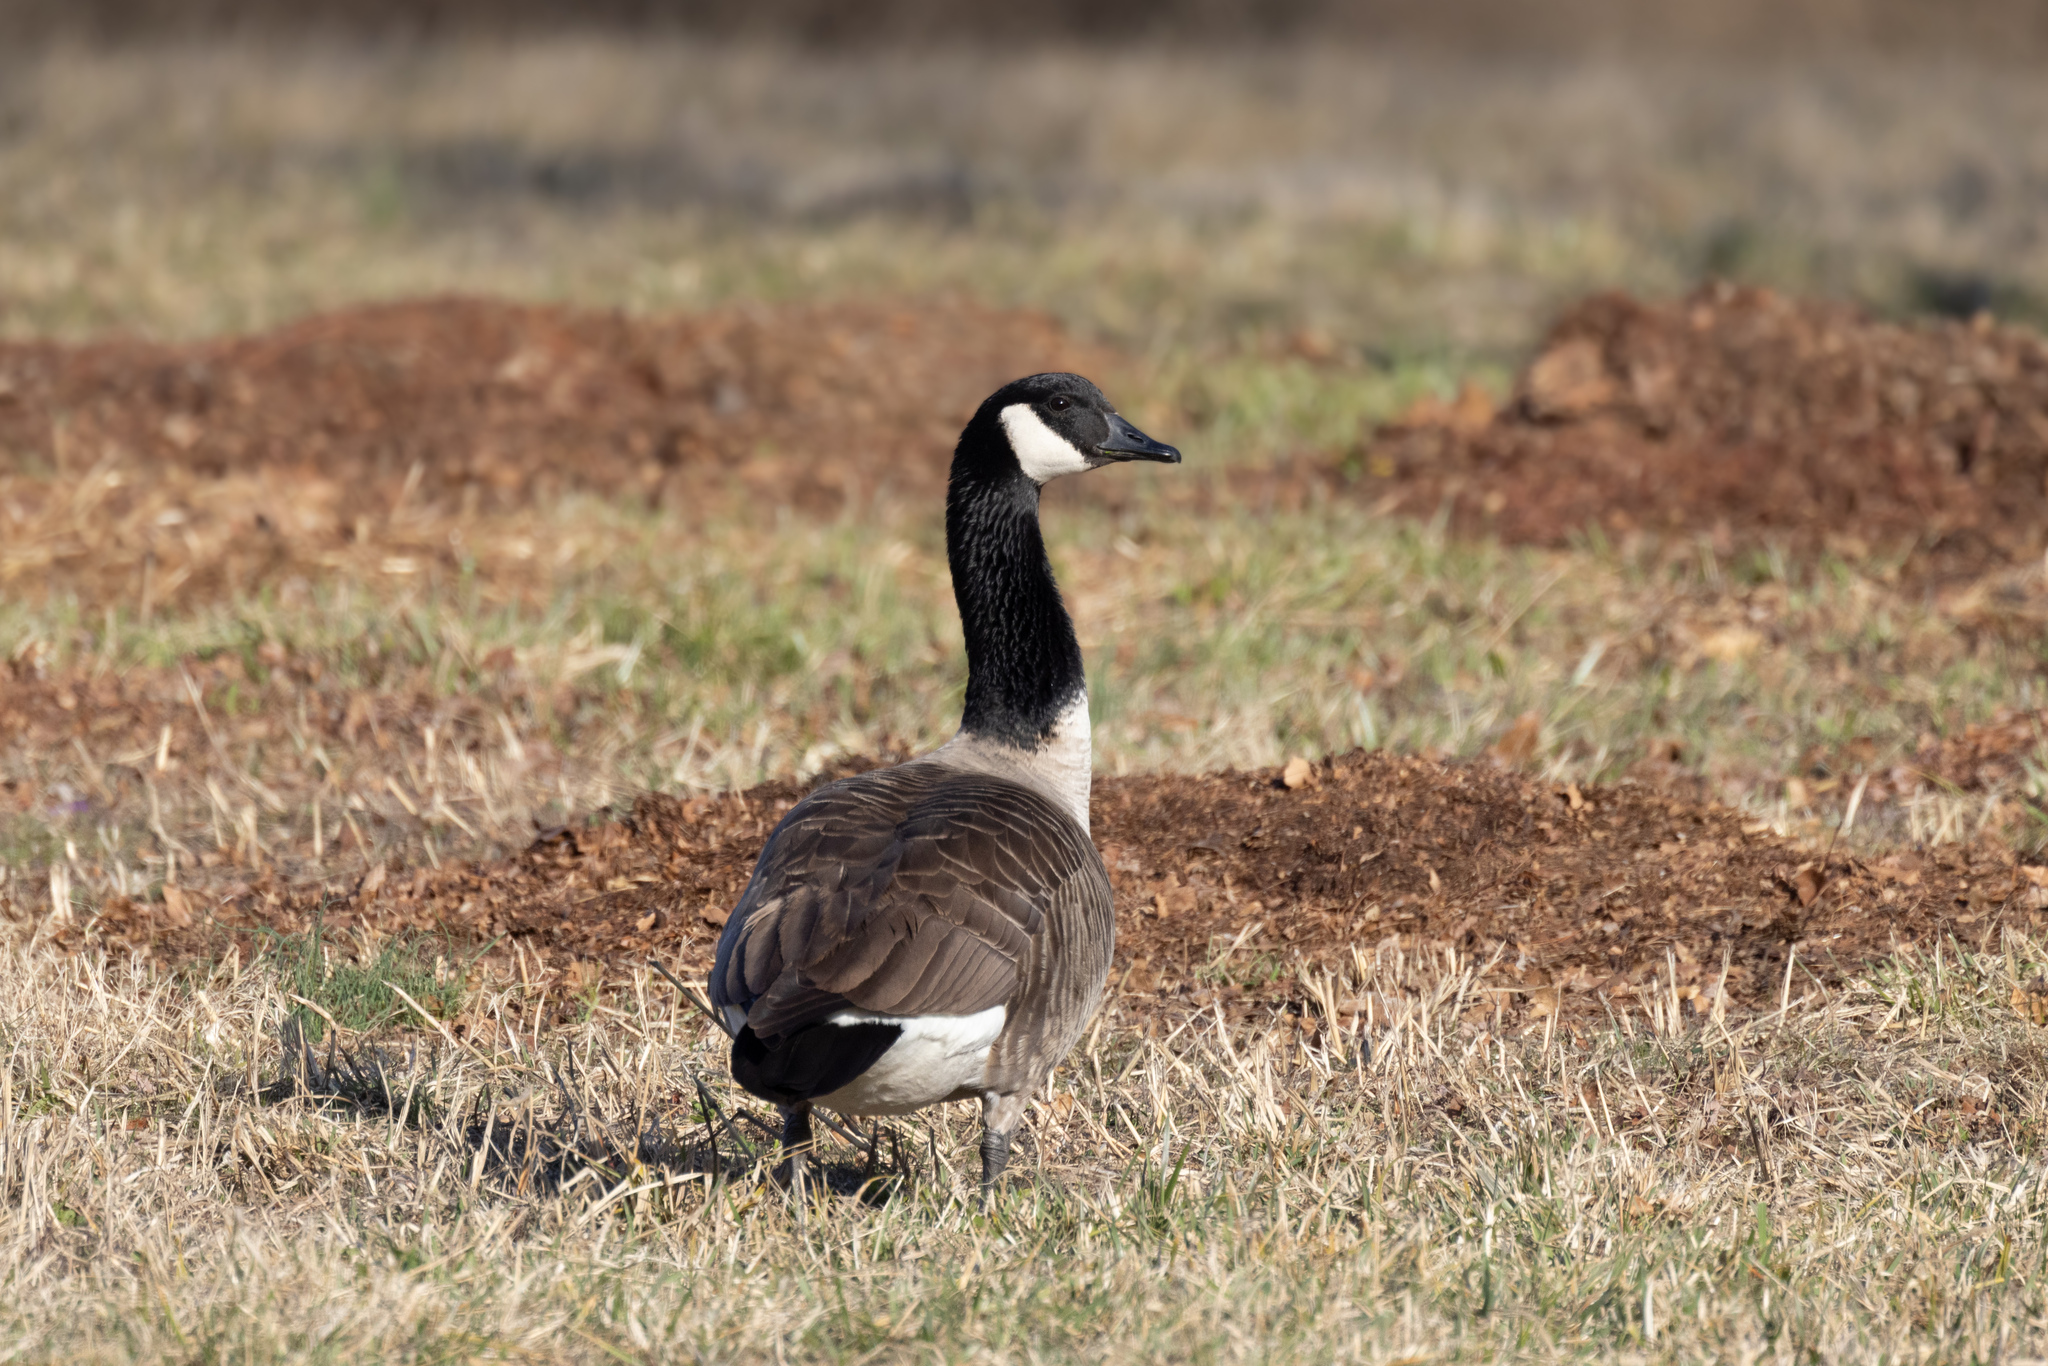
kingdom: Animalia
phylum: Chordata
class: Aves
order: Anseriformes
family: Anatidae
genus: Branta
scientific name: Branta canadensis
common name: Canada goose
